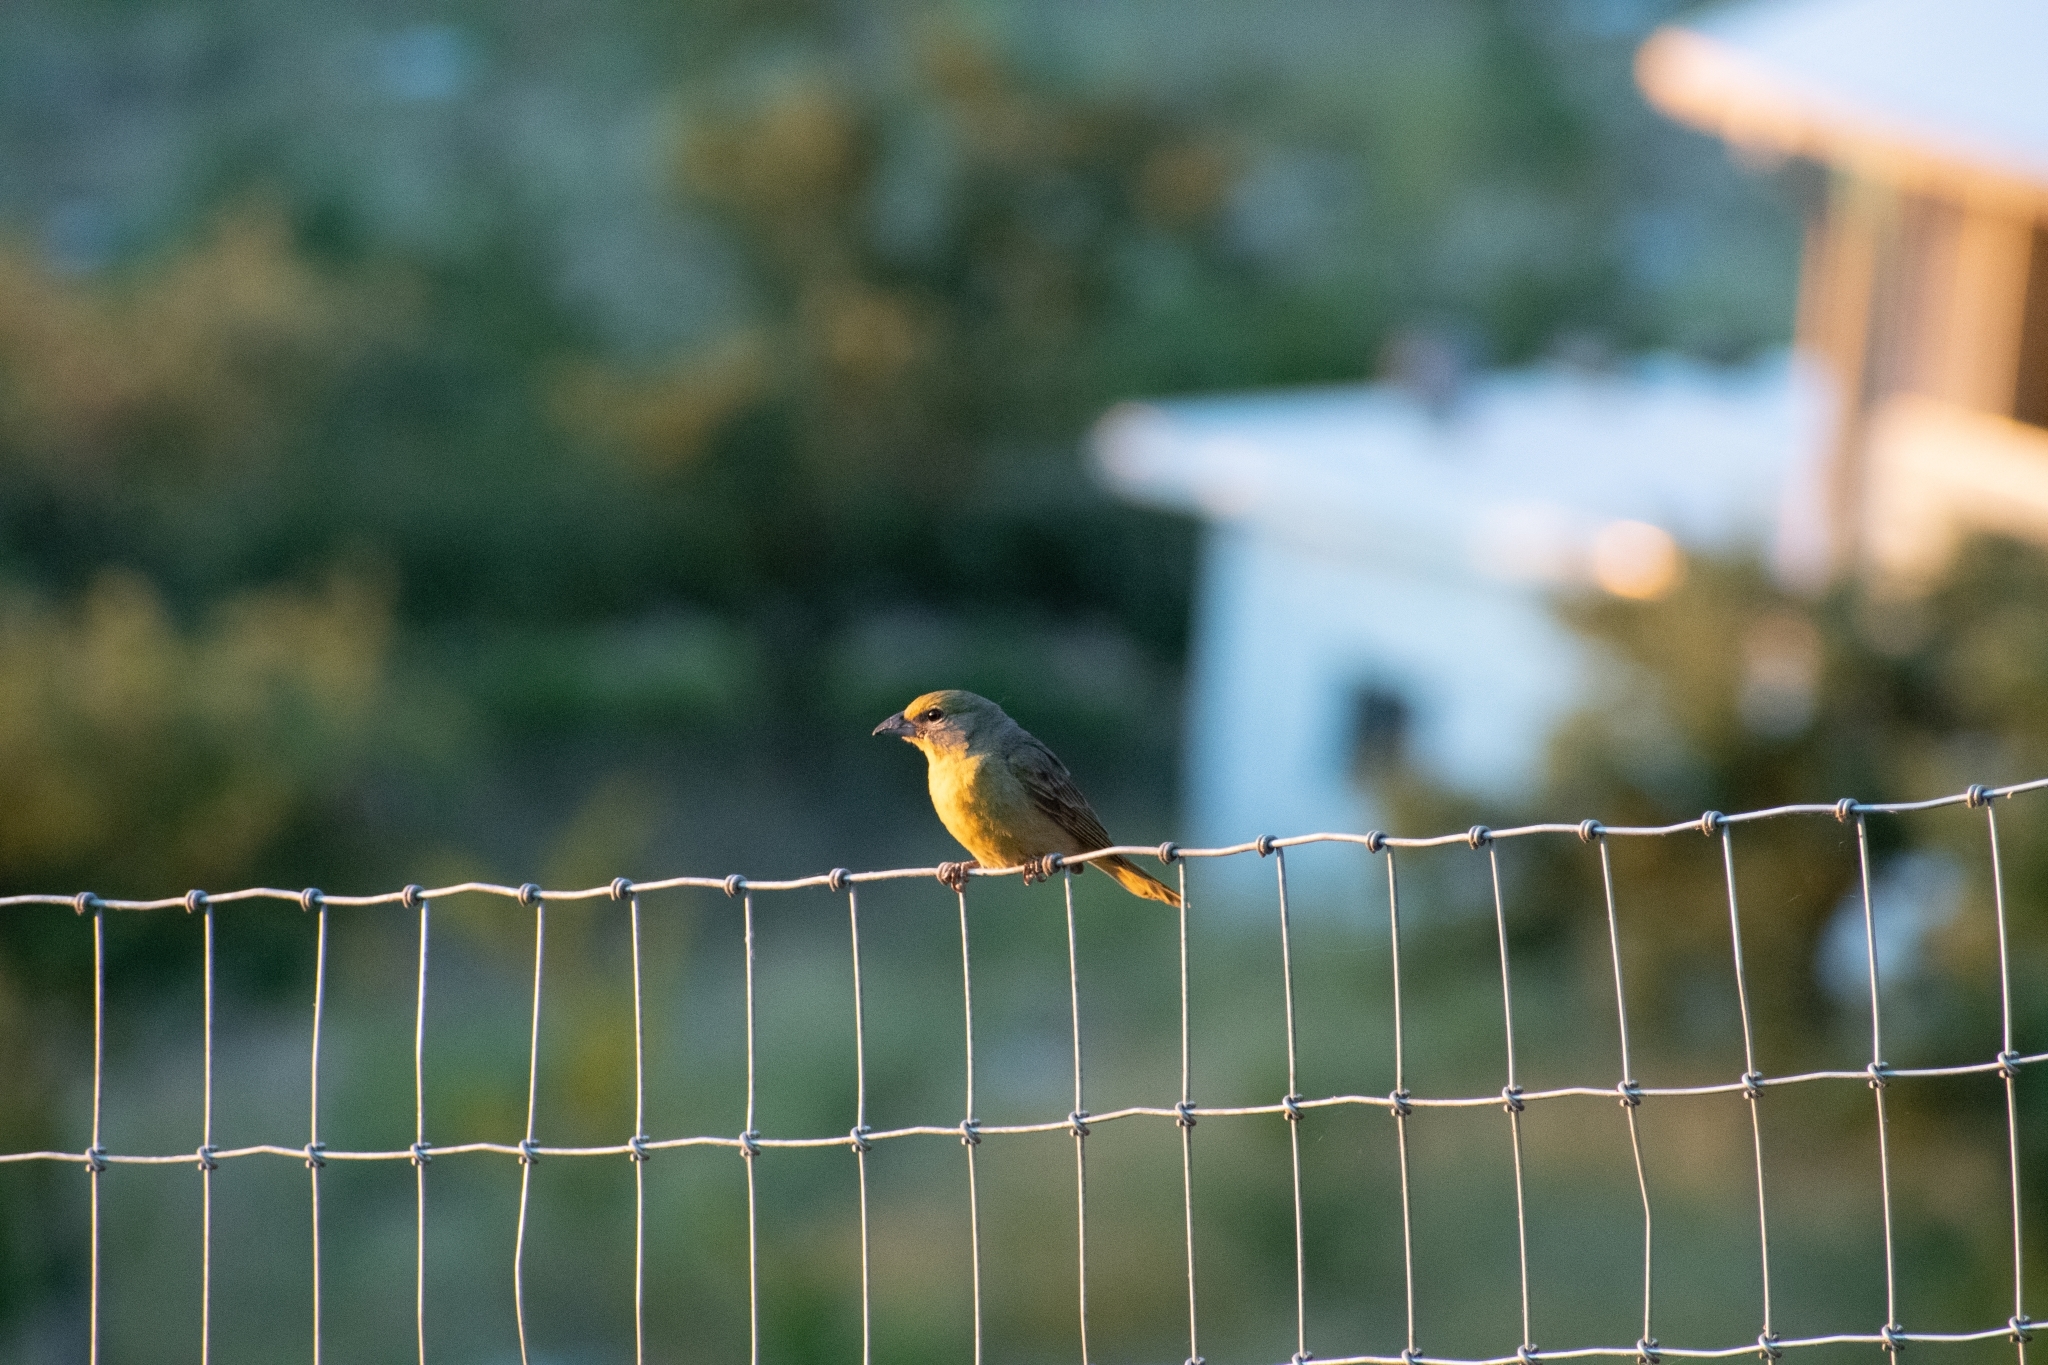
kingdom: Animalia
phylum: Chordata
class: Aves
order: Passeriformes
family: Cardinalidae
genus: Piranga
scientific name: Piranga flava
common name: Red tanager
